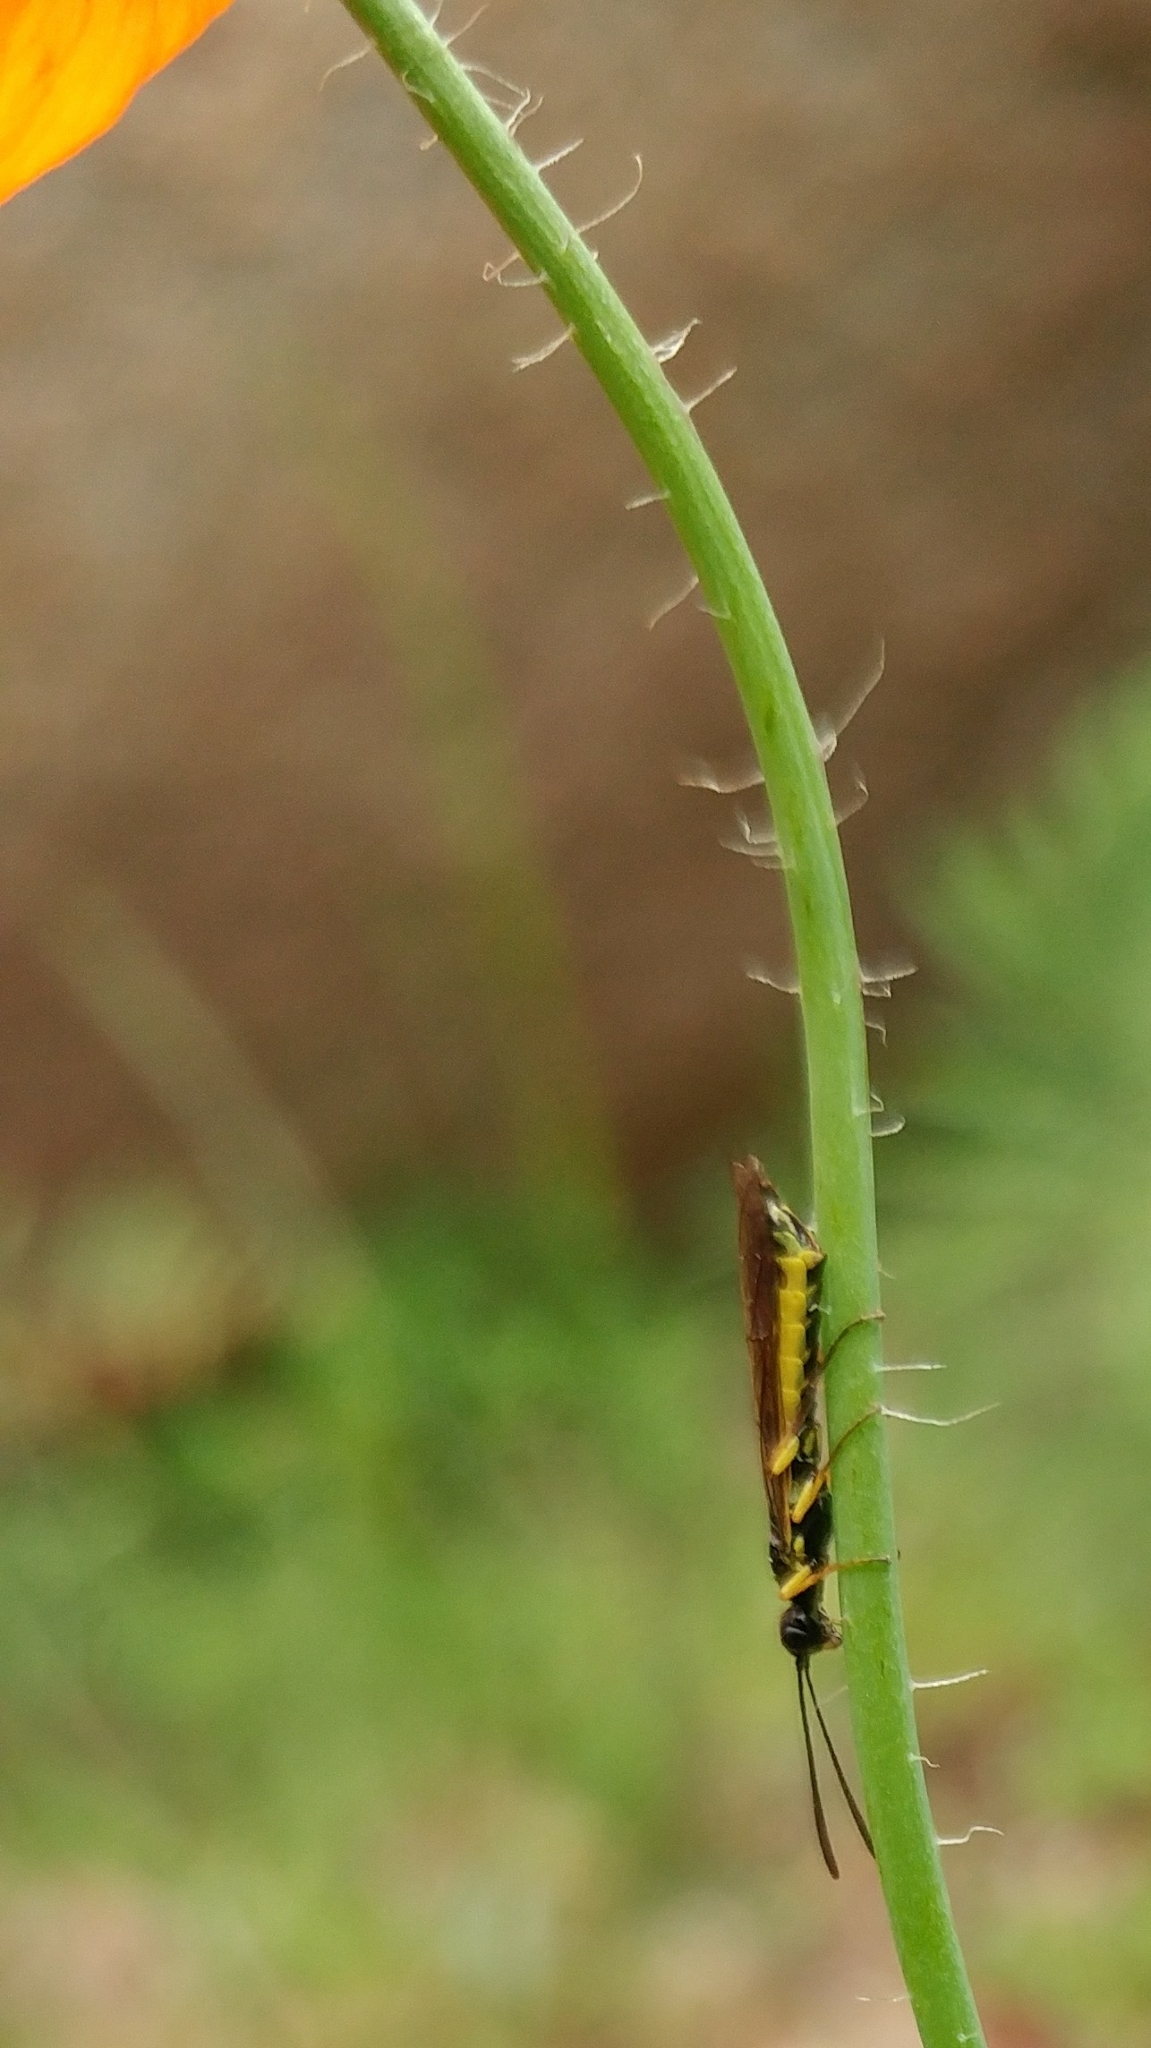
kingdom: Plantae
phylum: Tracheophyta
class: Magnoliopsida
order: Ranunculales
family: Papaveraceae
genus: Papaver
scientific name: Papaver californicum
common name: Fire poppy
